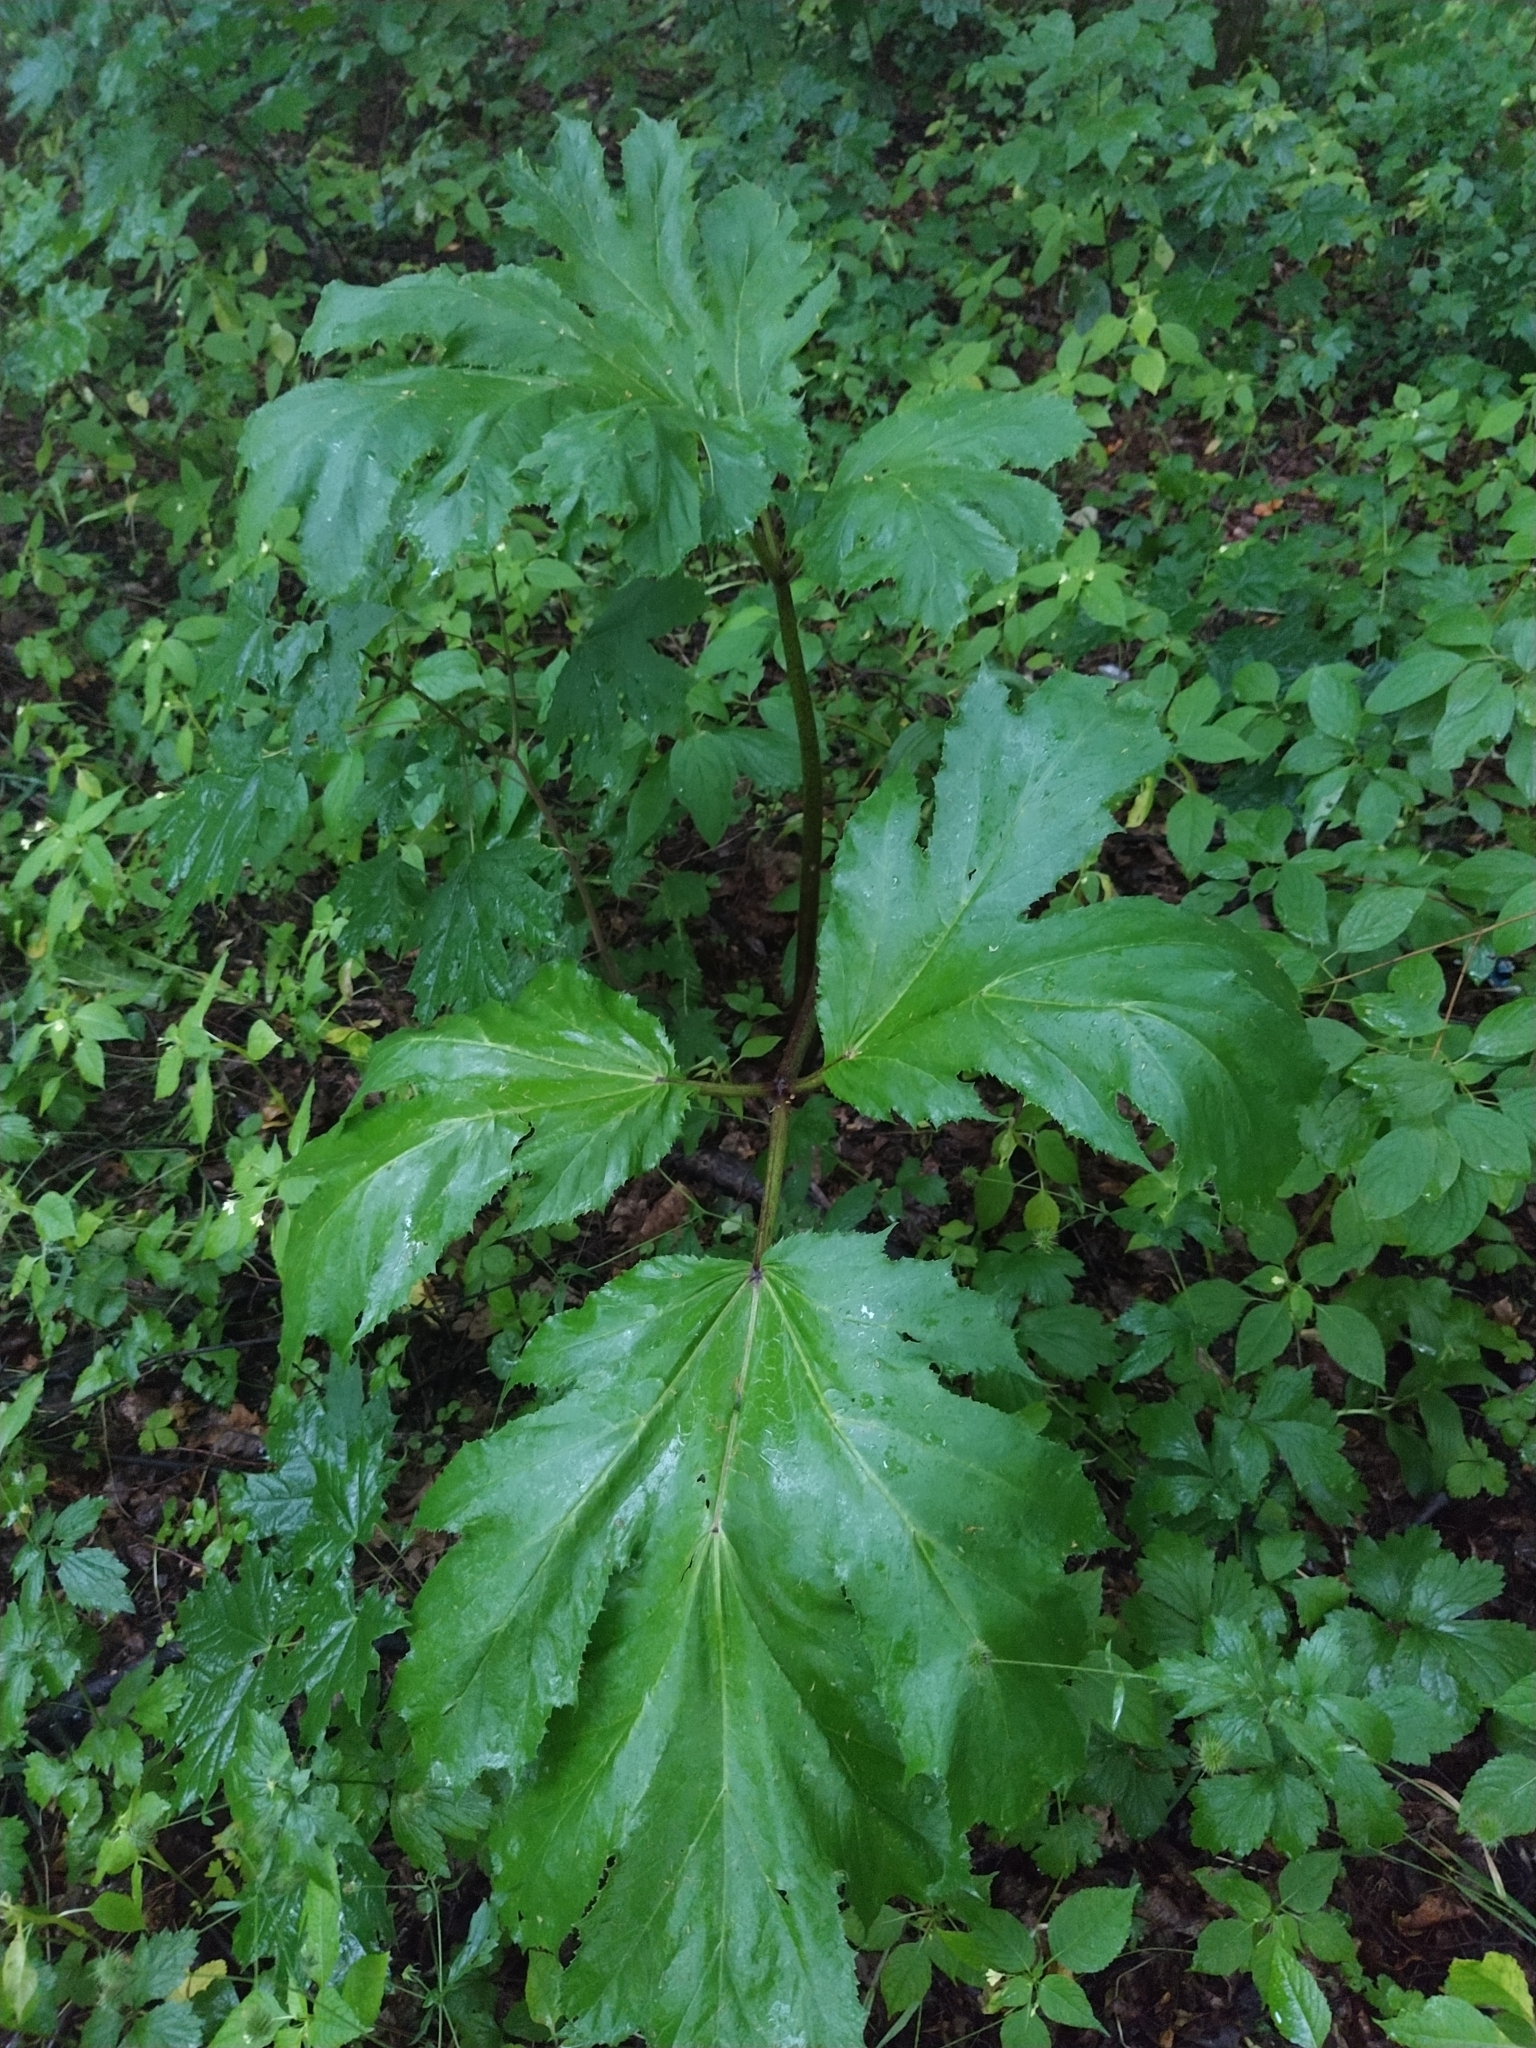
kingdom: Plantae
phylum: Tracheophyta
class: Magnoliopsida
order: Apiales
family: Apiaceae
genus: Heracleum
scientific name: Heracleum sosnowskyi
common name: Sosnowsky's hogweed
